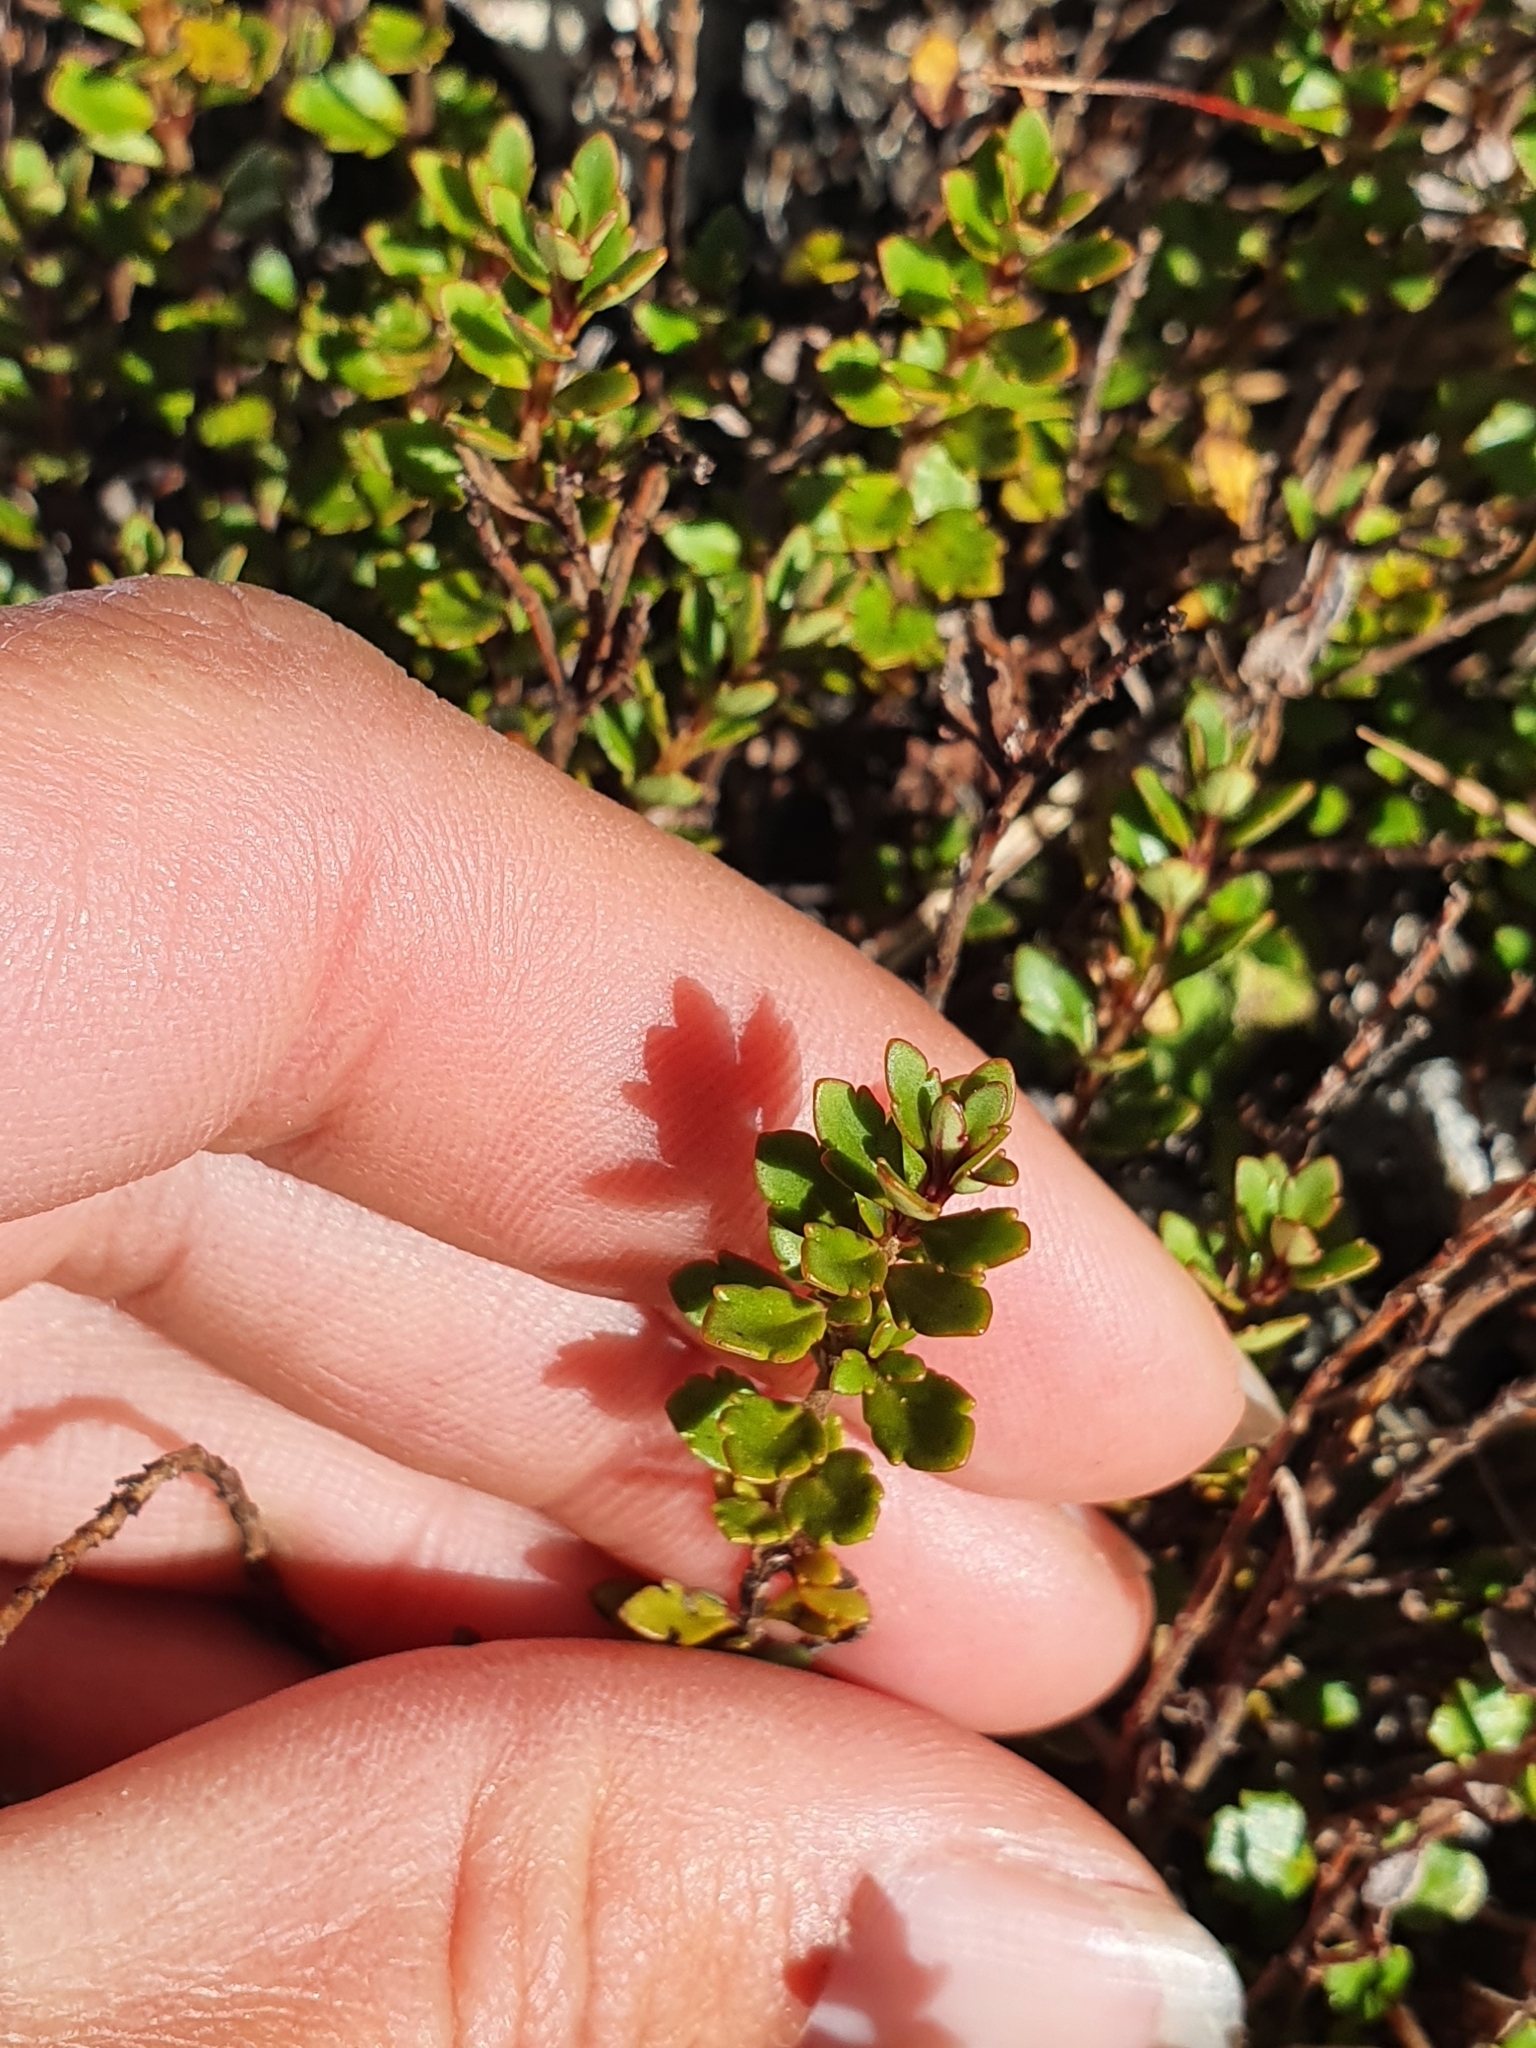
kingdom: Plantae
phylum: Tracheophyta
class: Magnoliopsida
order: Lamiales
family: Plantaginaceae
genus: Veronica
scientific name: Veronica lyallii
